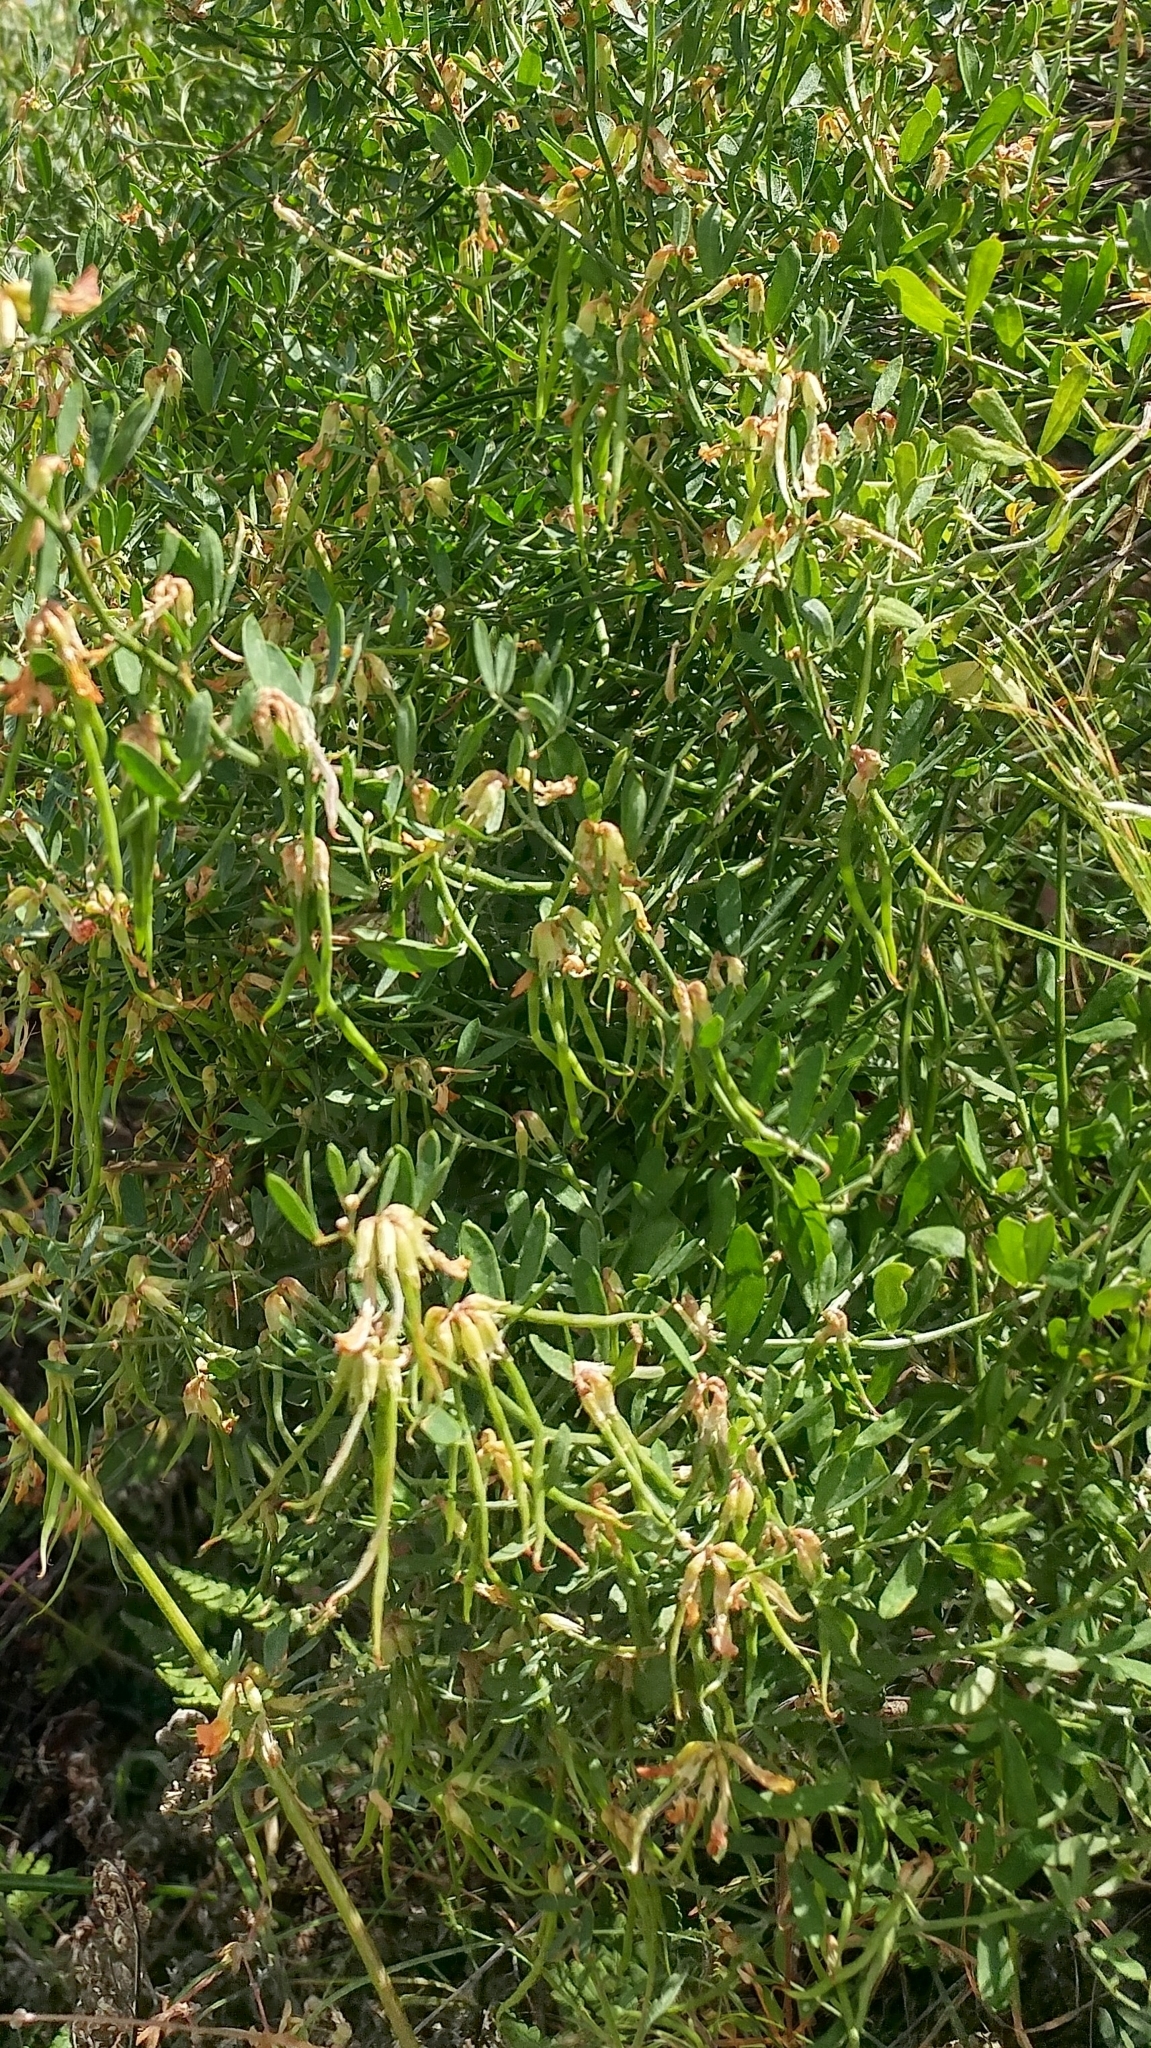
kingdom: Plantae
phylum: Tracheophyta
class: Magnoliopsida
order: Fabales
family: Fabaceae
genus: Acmispon
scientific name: Acmispon dendroideus
